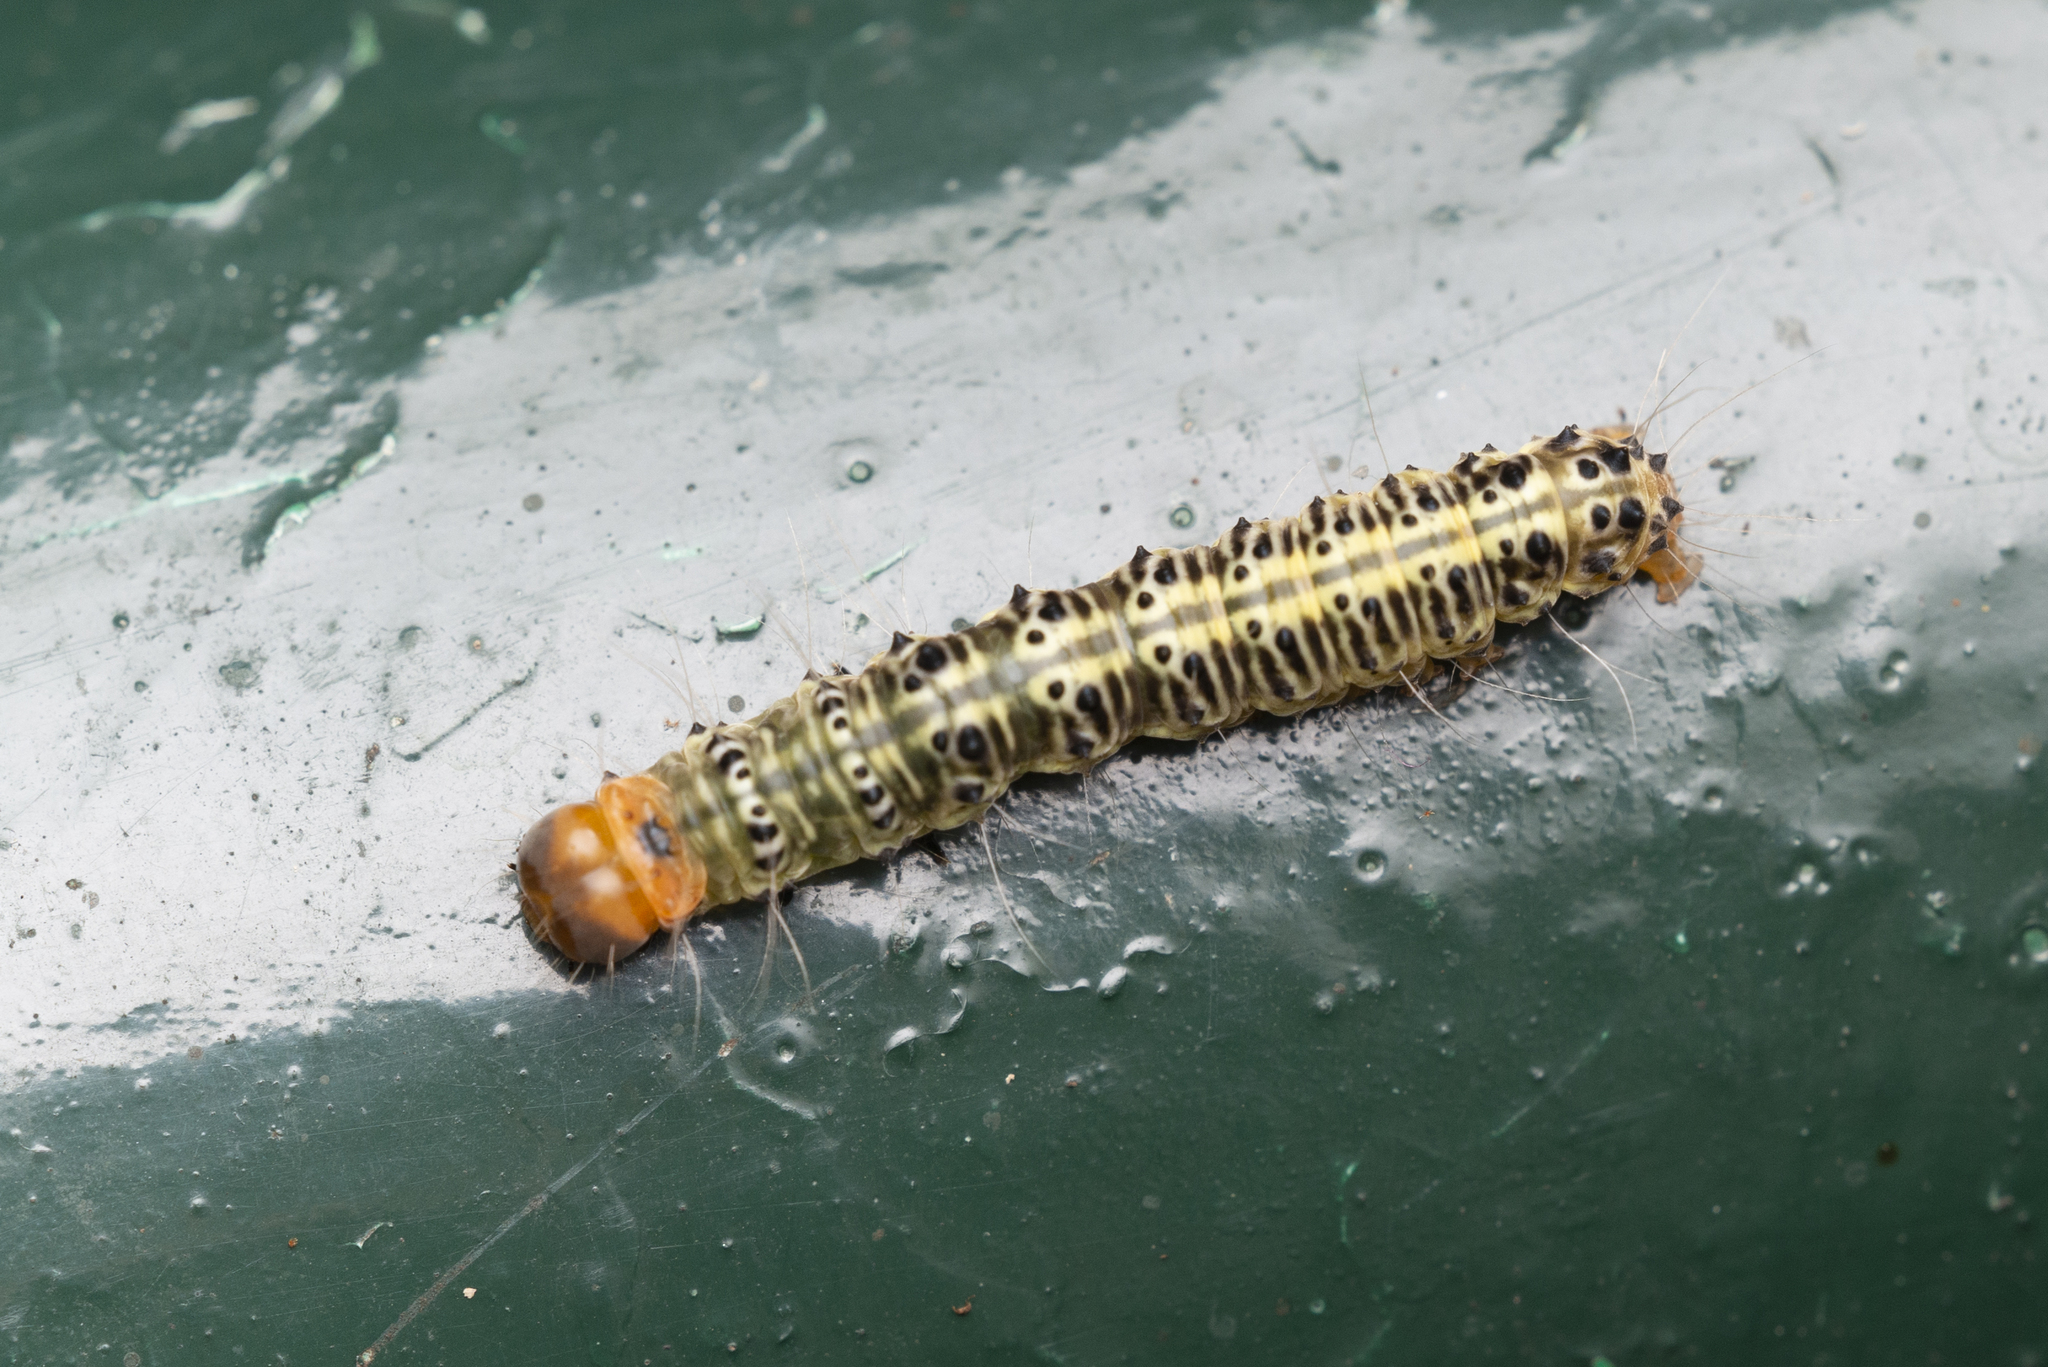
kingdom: Animalia
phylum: Arthropoda
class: Insecta
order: Lepidoptera
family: Erebidae
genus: Asota
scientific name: Asota plaginota
